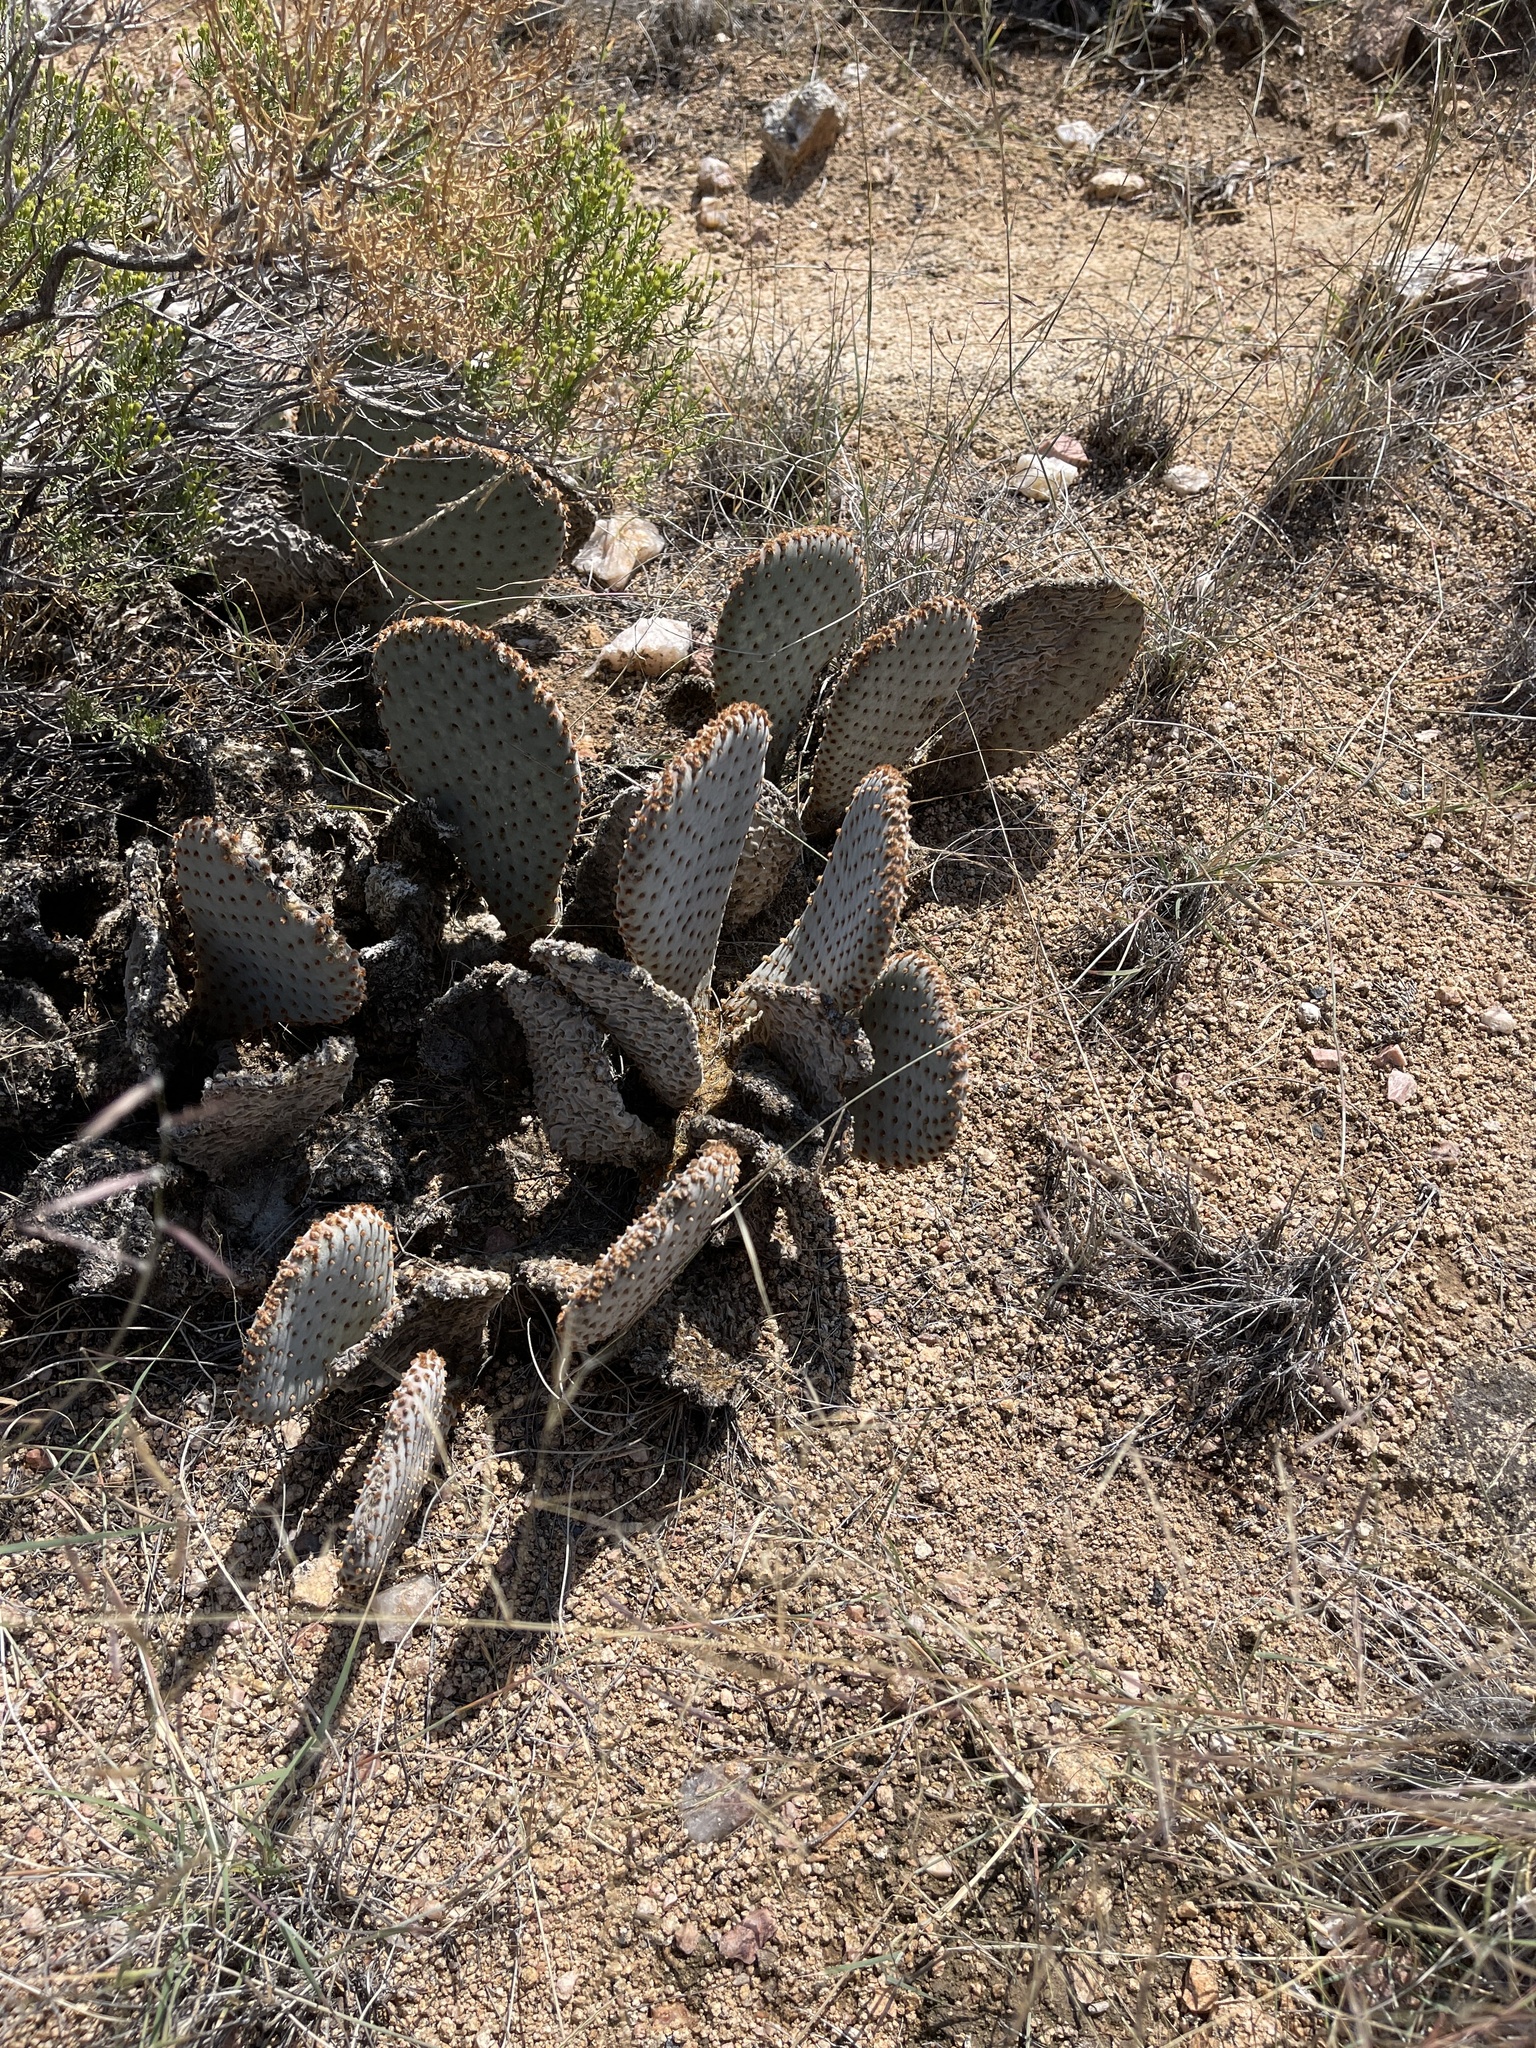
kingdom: Plantae
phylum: Tracheophyta
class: Magnoliopsida
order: Caryophyllales
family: Cactaceae
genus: Opuntia
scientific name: Opuntia basilaris
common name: Beavertail prickly-pear
